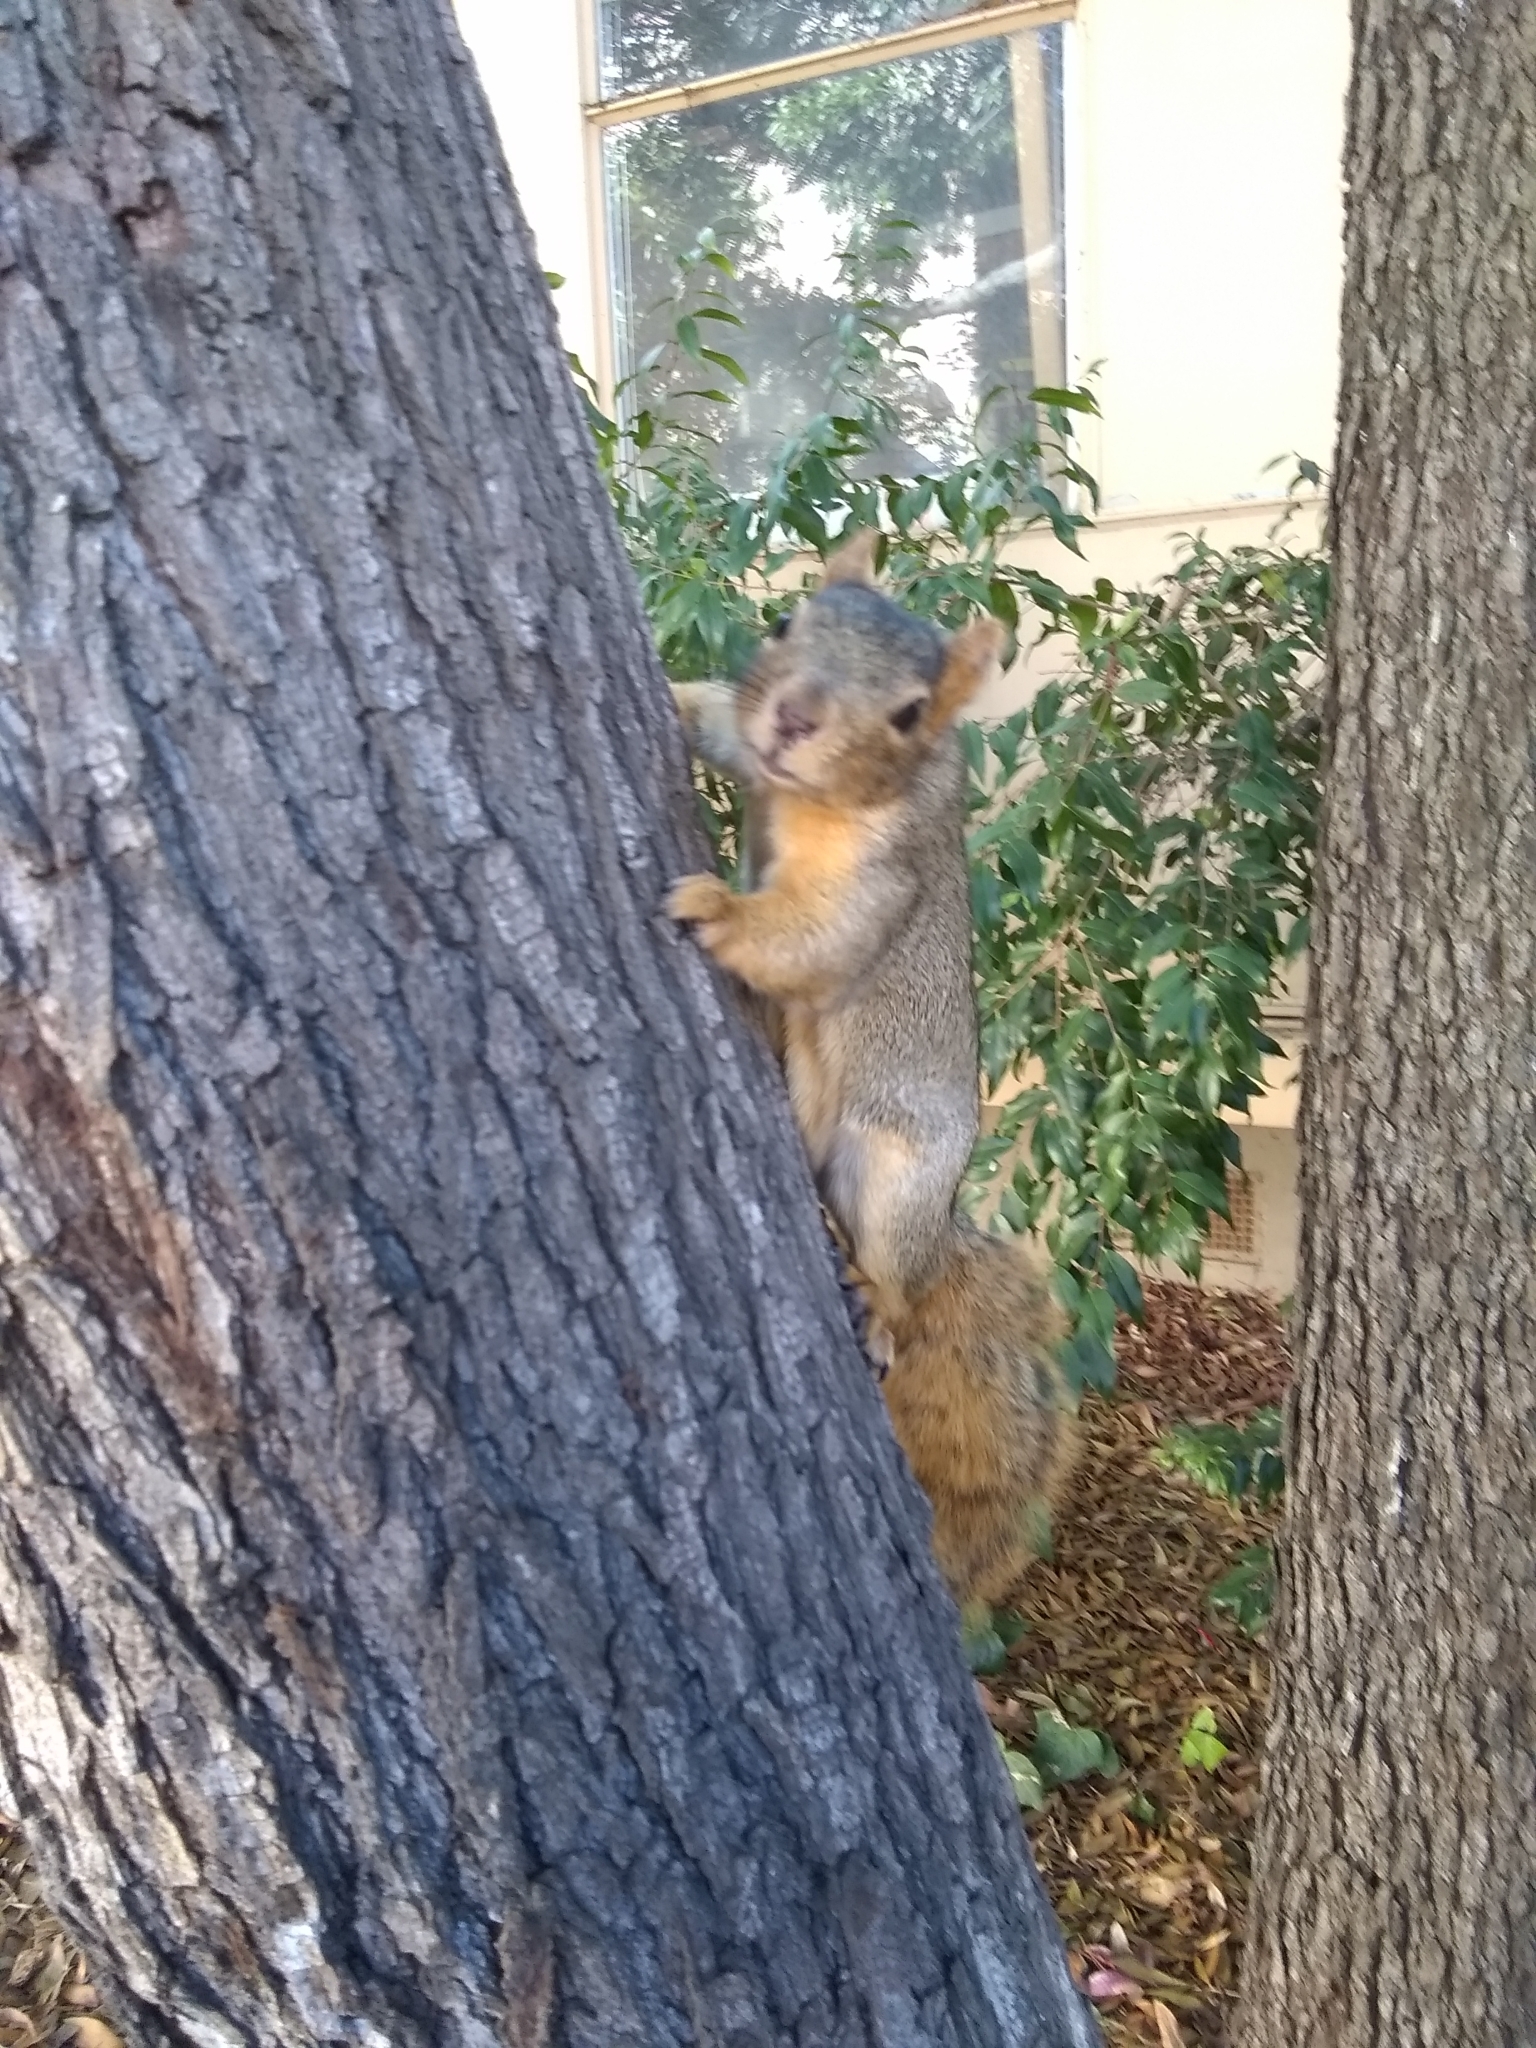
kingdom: Animalia
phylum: Chordata
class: Mammalia
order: Rodentia
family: Sciuridae
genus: Sciurus
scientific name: Sciurus niger
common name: Fox squirrel
